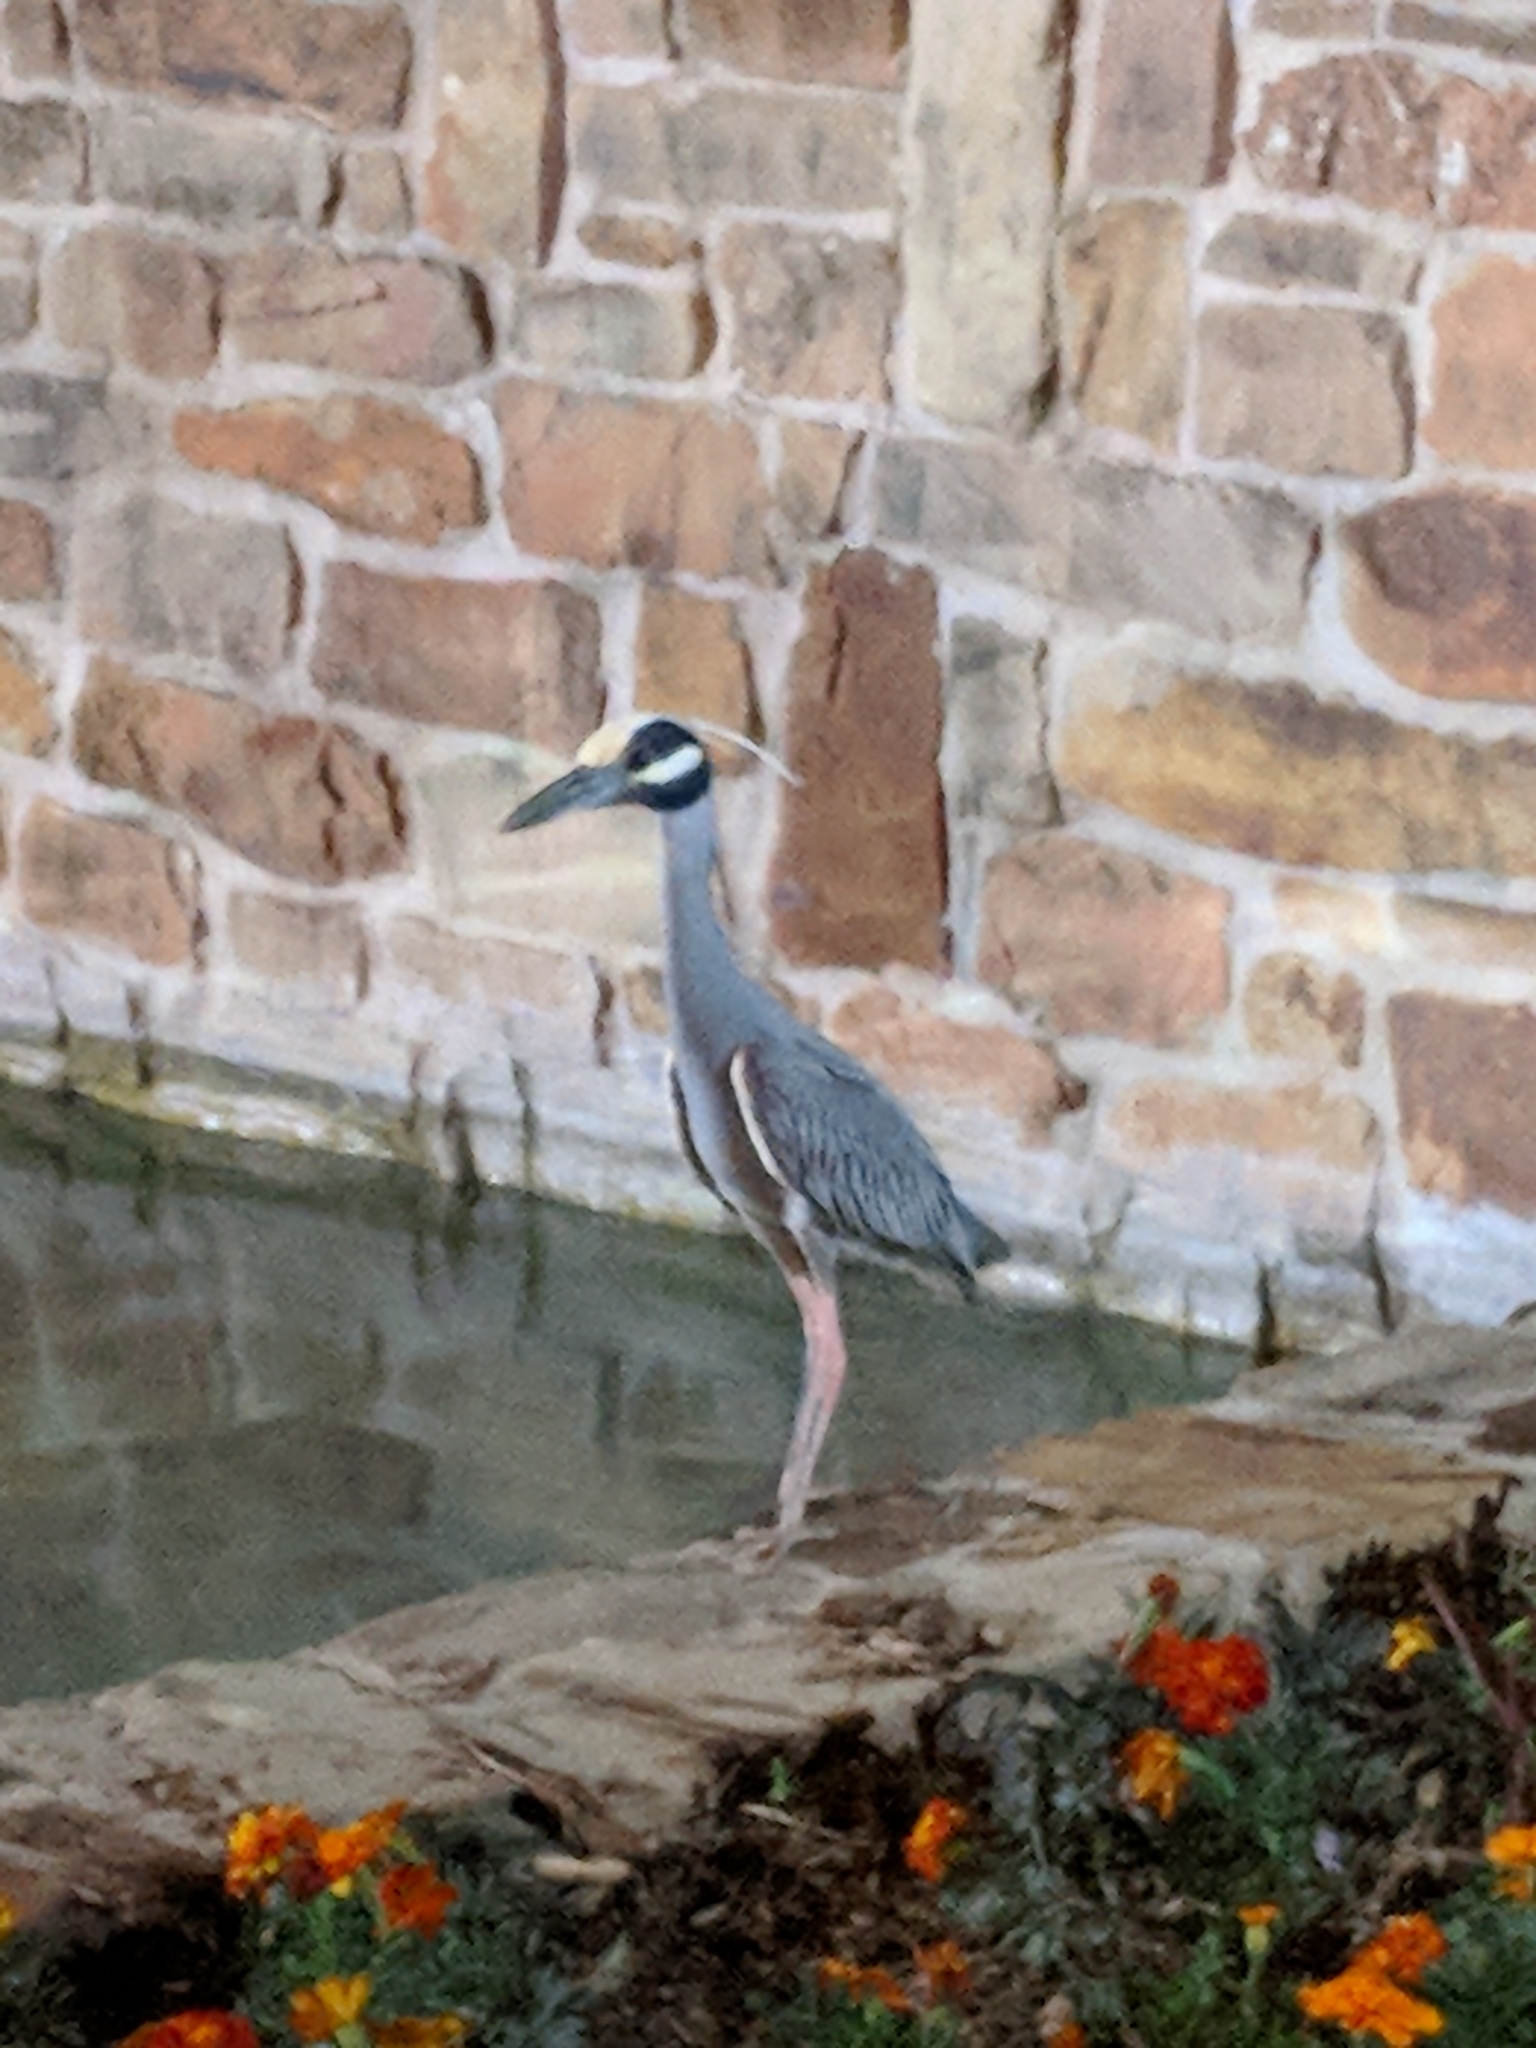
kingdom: Animalia
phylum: Chordata
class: Aves
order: Pelecaniformes
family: Ardeidae
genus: Nyctanassa
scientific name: Nyctanassa violacea
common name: Yellow-crowned night heron
